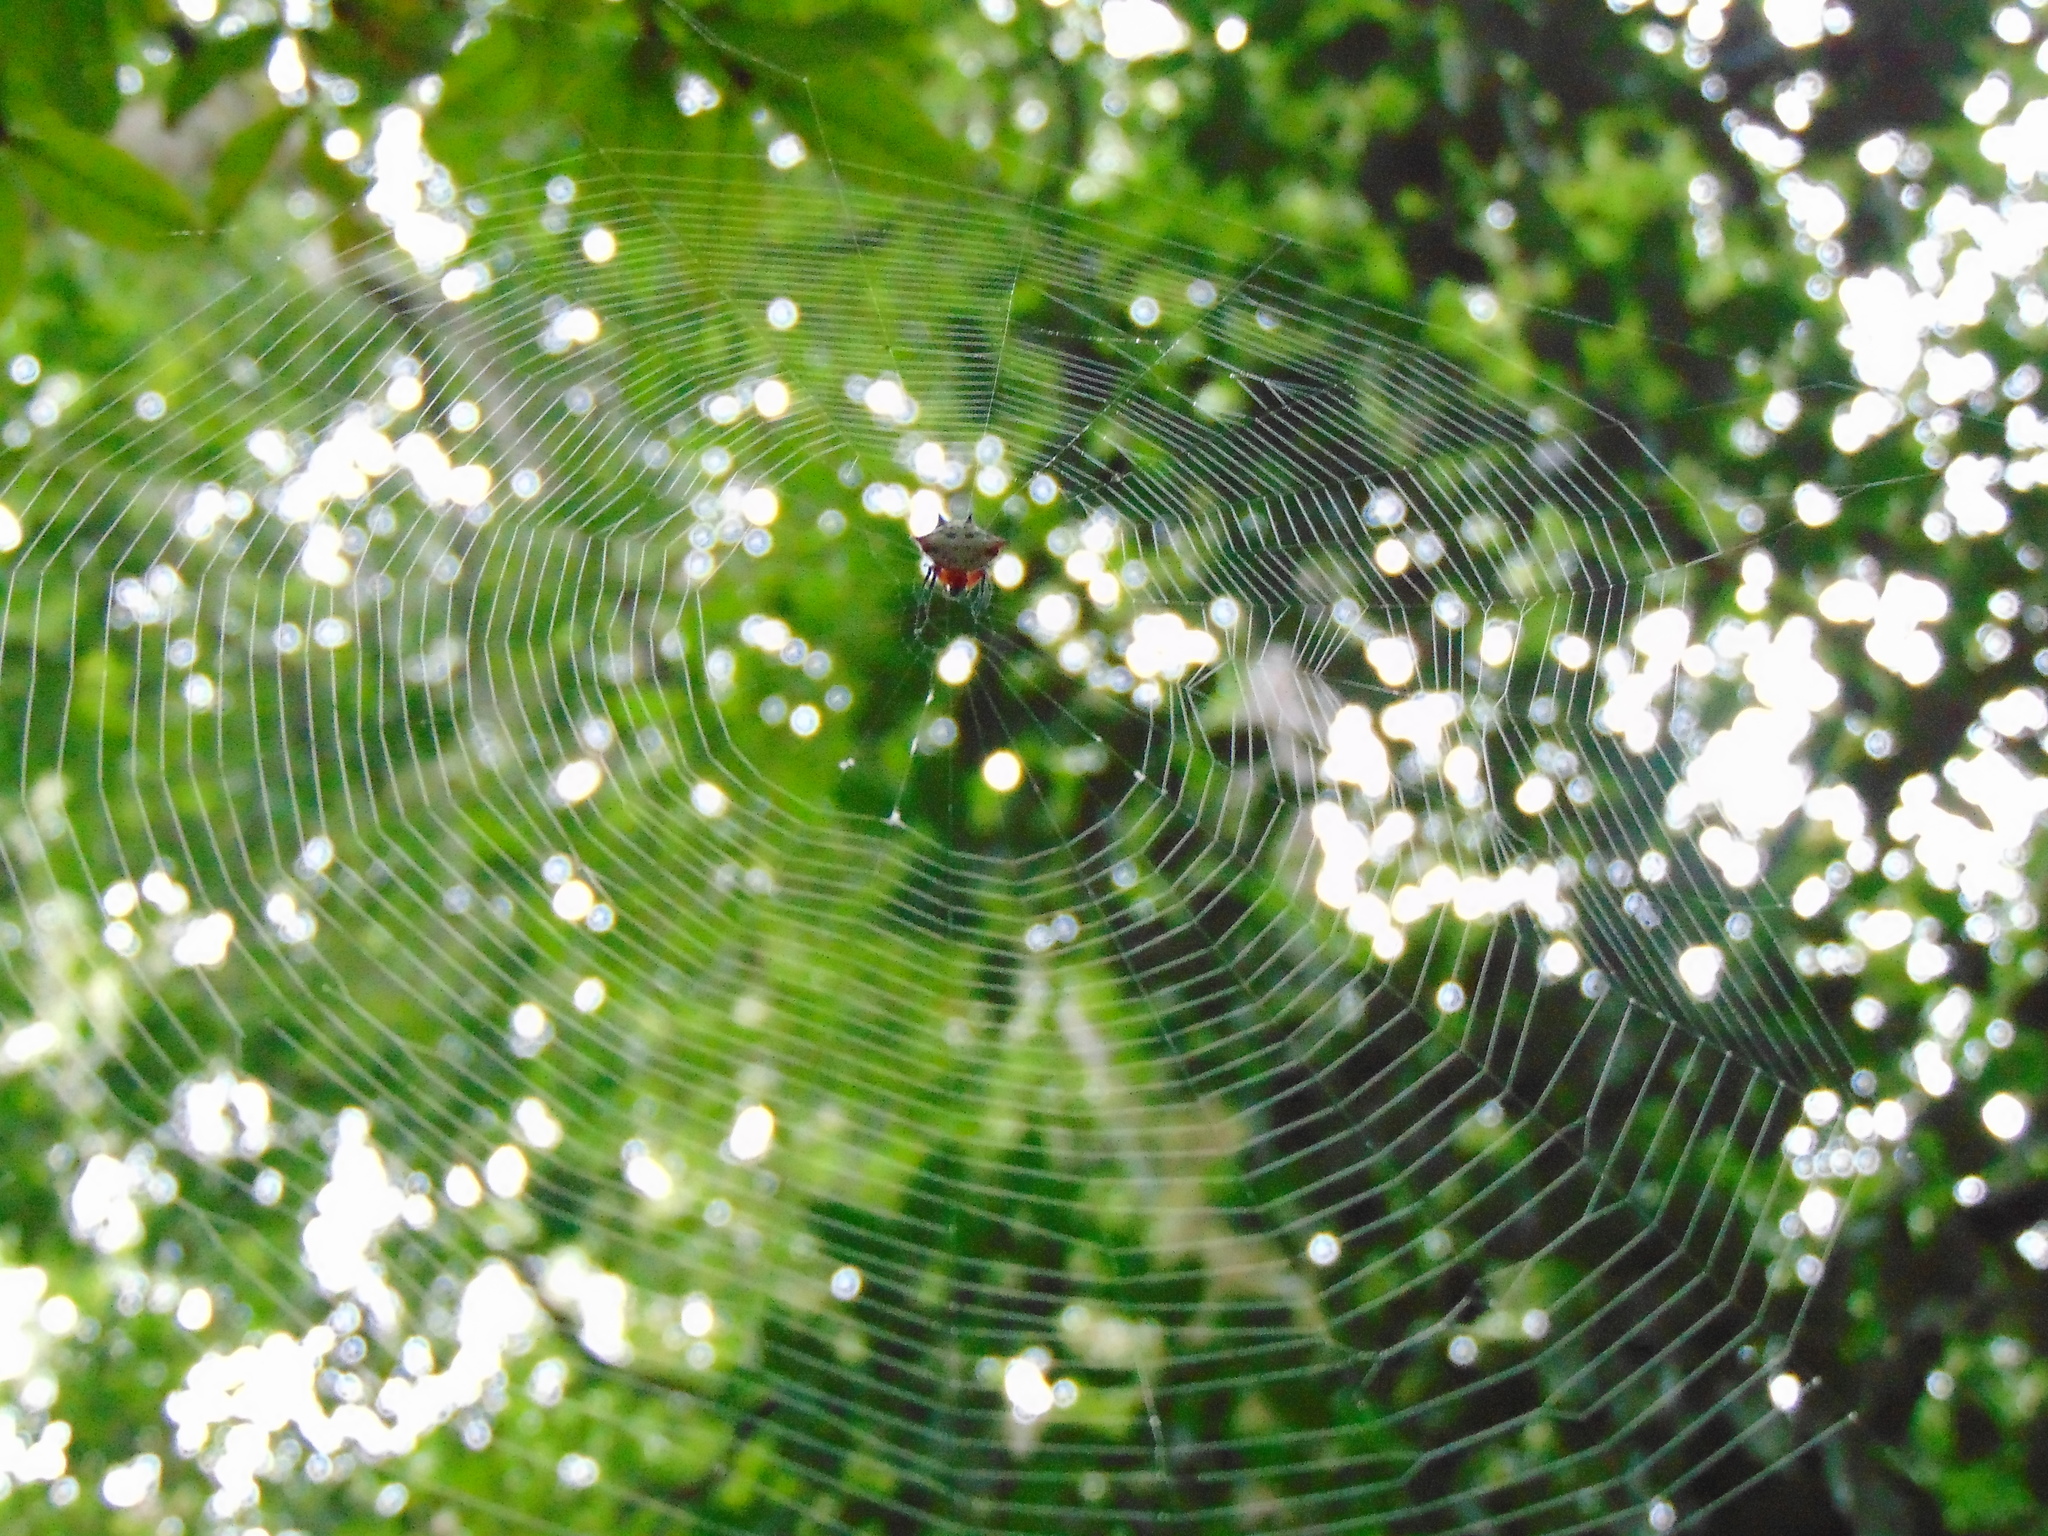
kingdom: Animalia
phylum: Arthropoda
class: Arachnida
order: Araneae
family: Araneidae
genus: Gasteracantha
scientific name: Gasteracantha sanguinolenta
